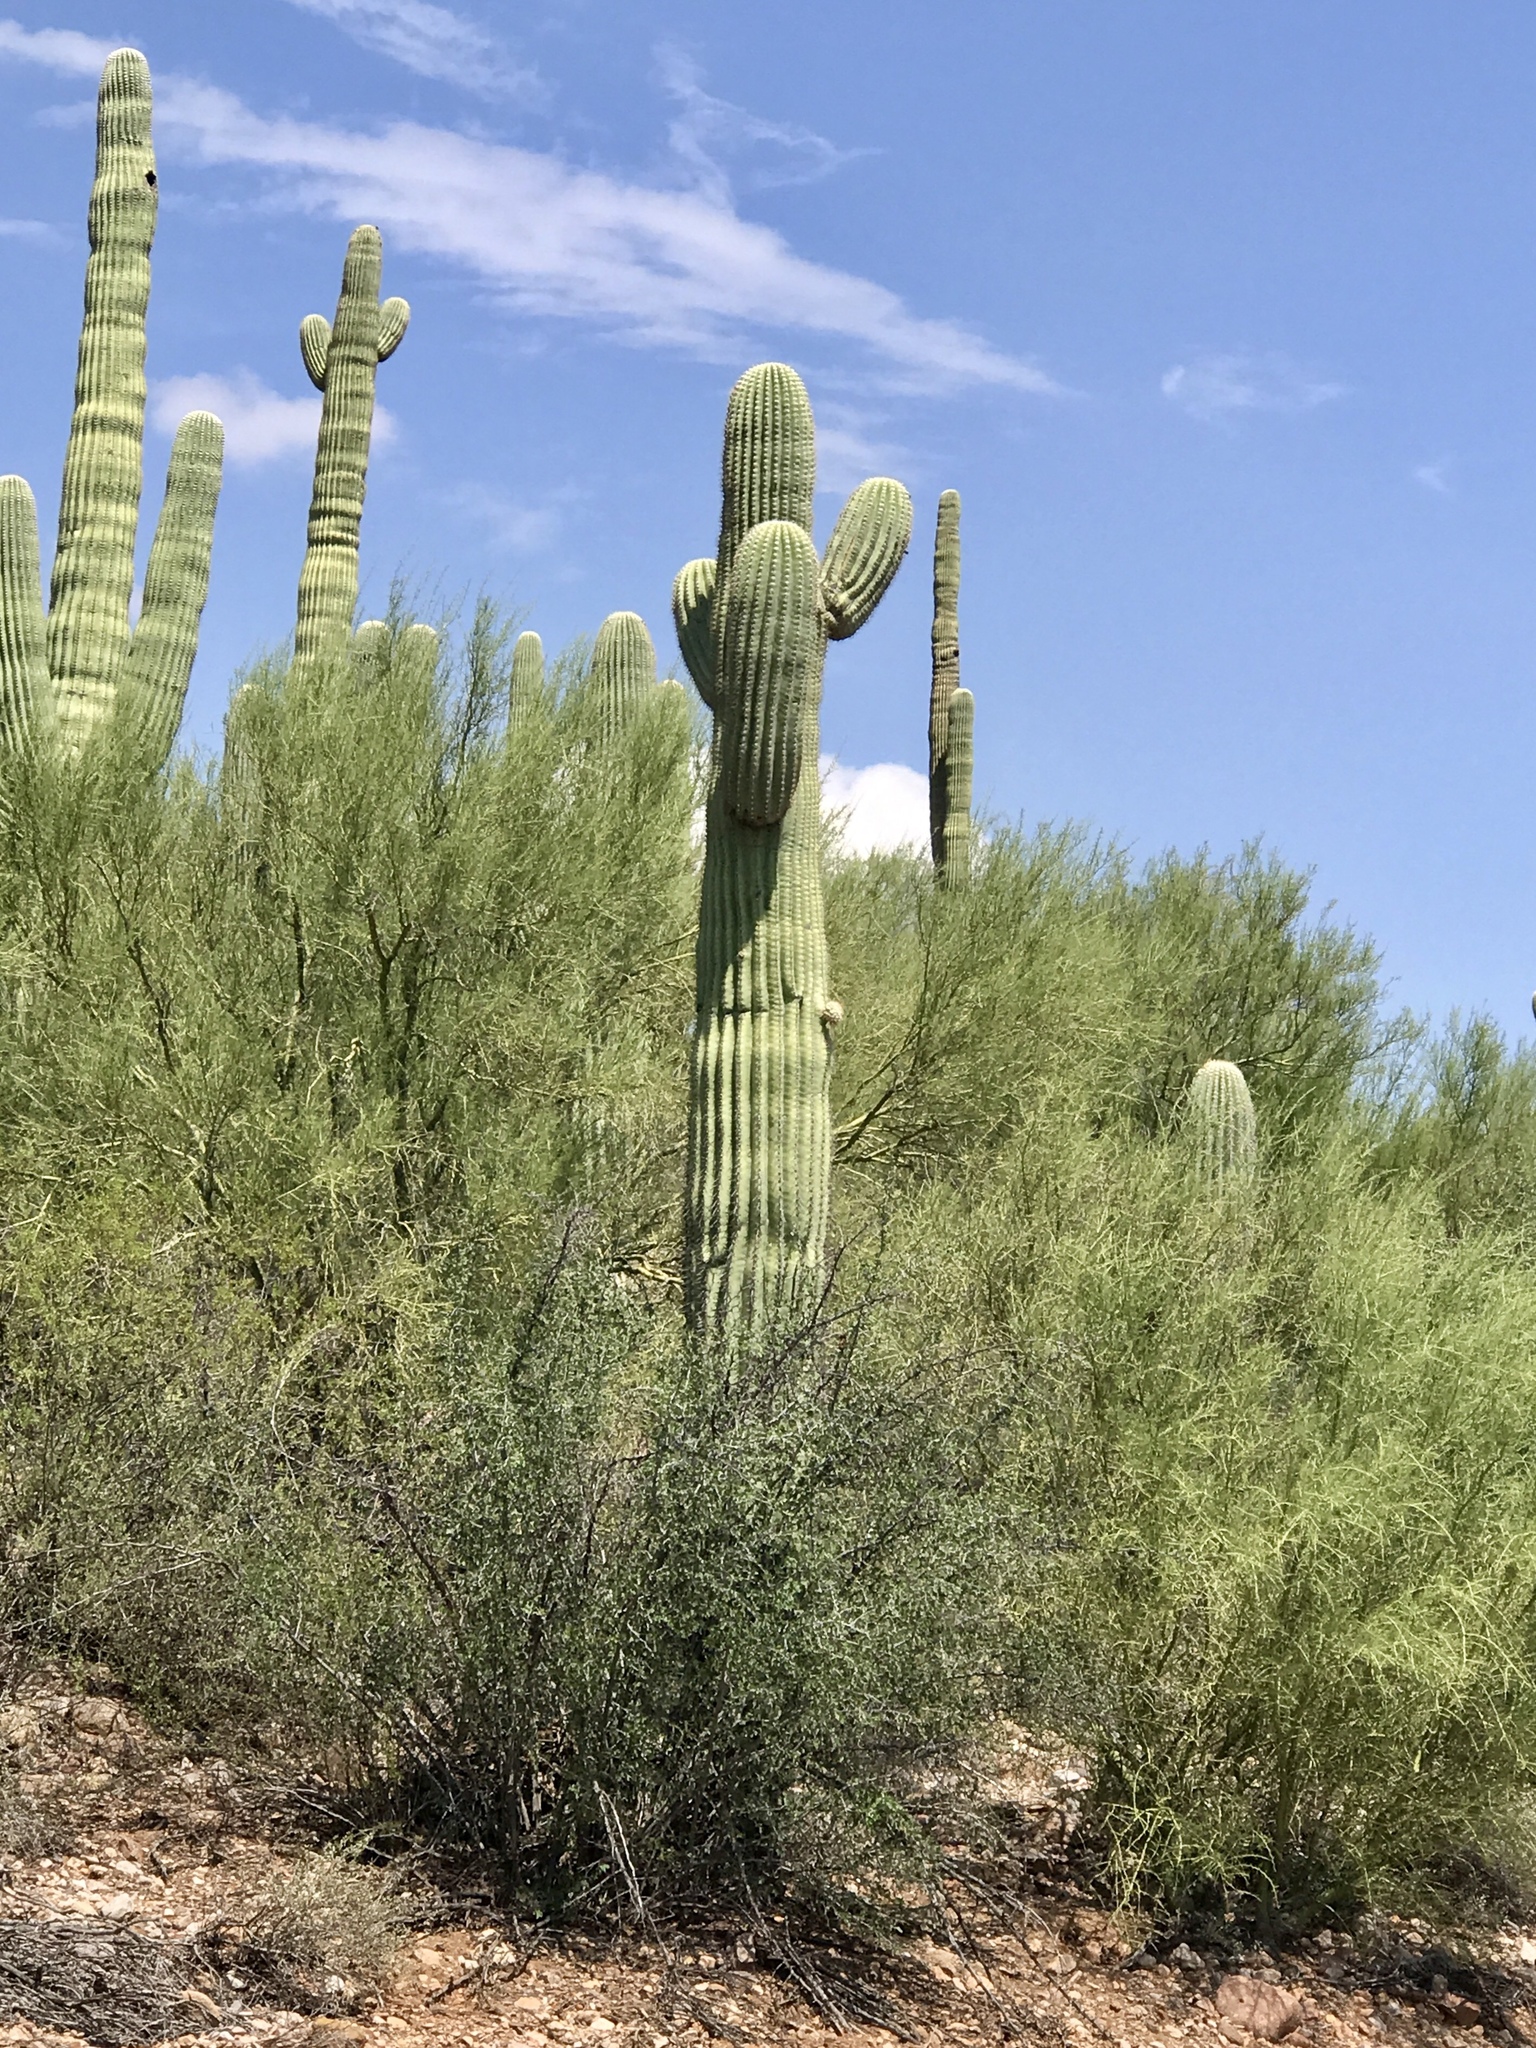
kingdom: Plantae
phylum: Tracheophyta
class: Magnoliopsida
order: Caryophyllales
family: Cactaceae
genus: Carnegiea
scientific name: Carnegiea gigantea
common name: Saguaro
